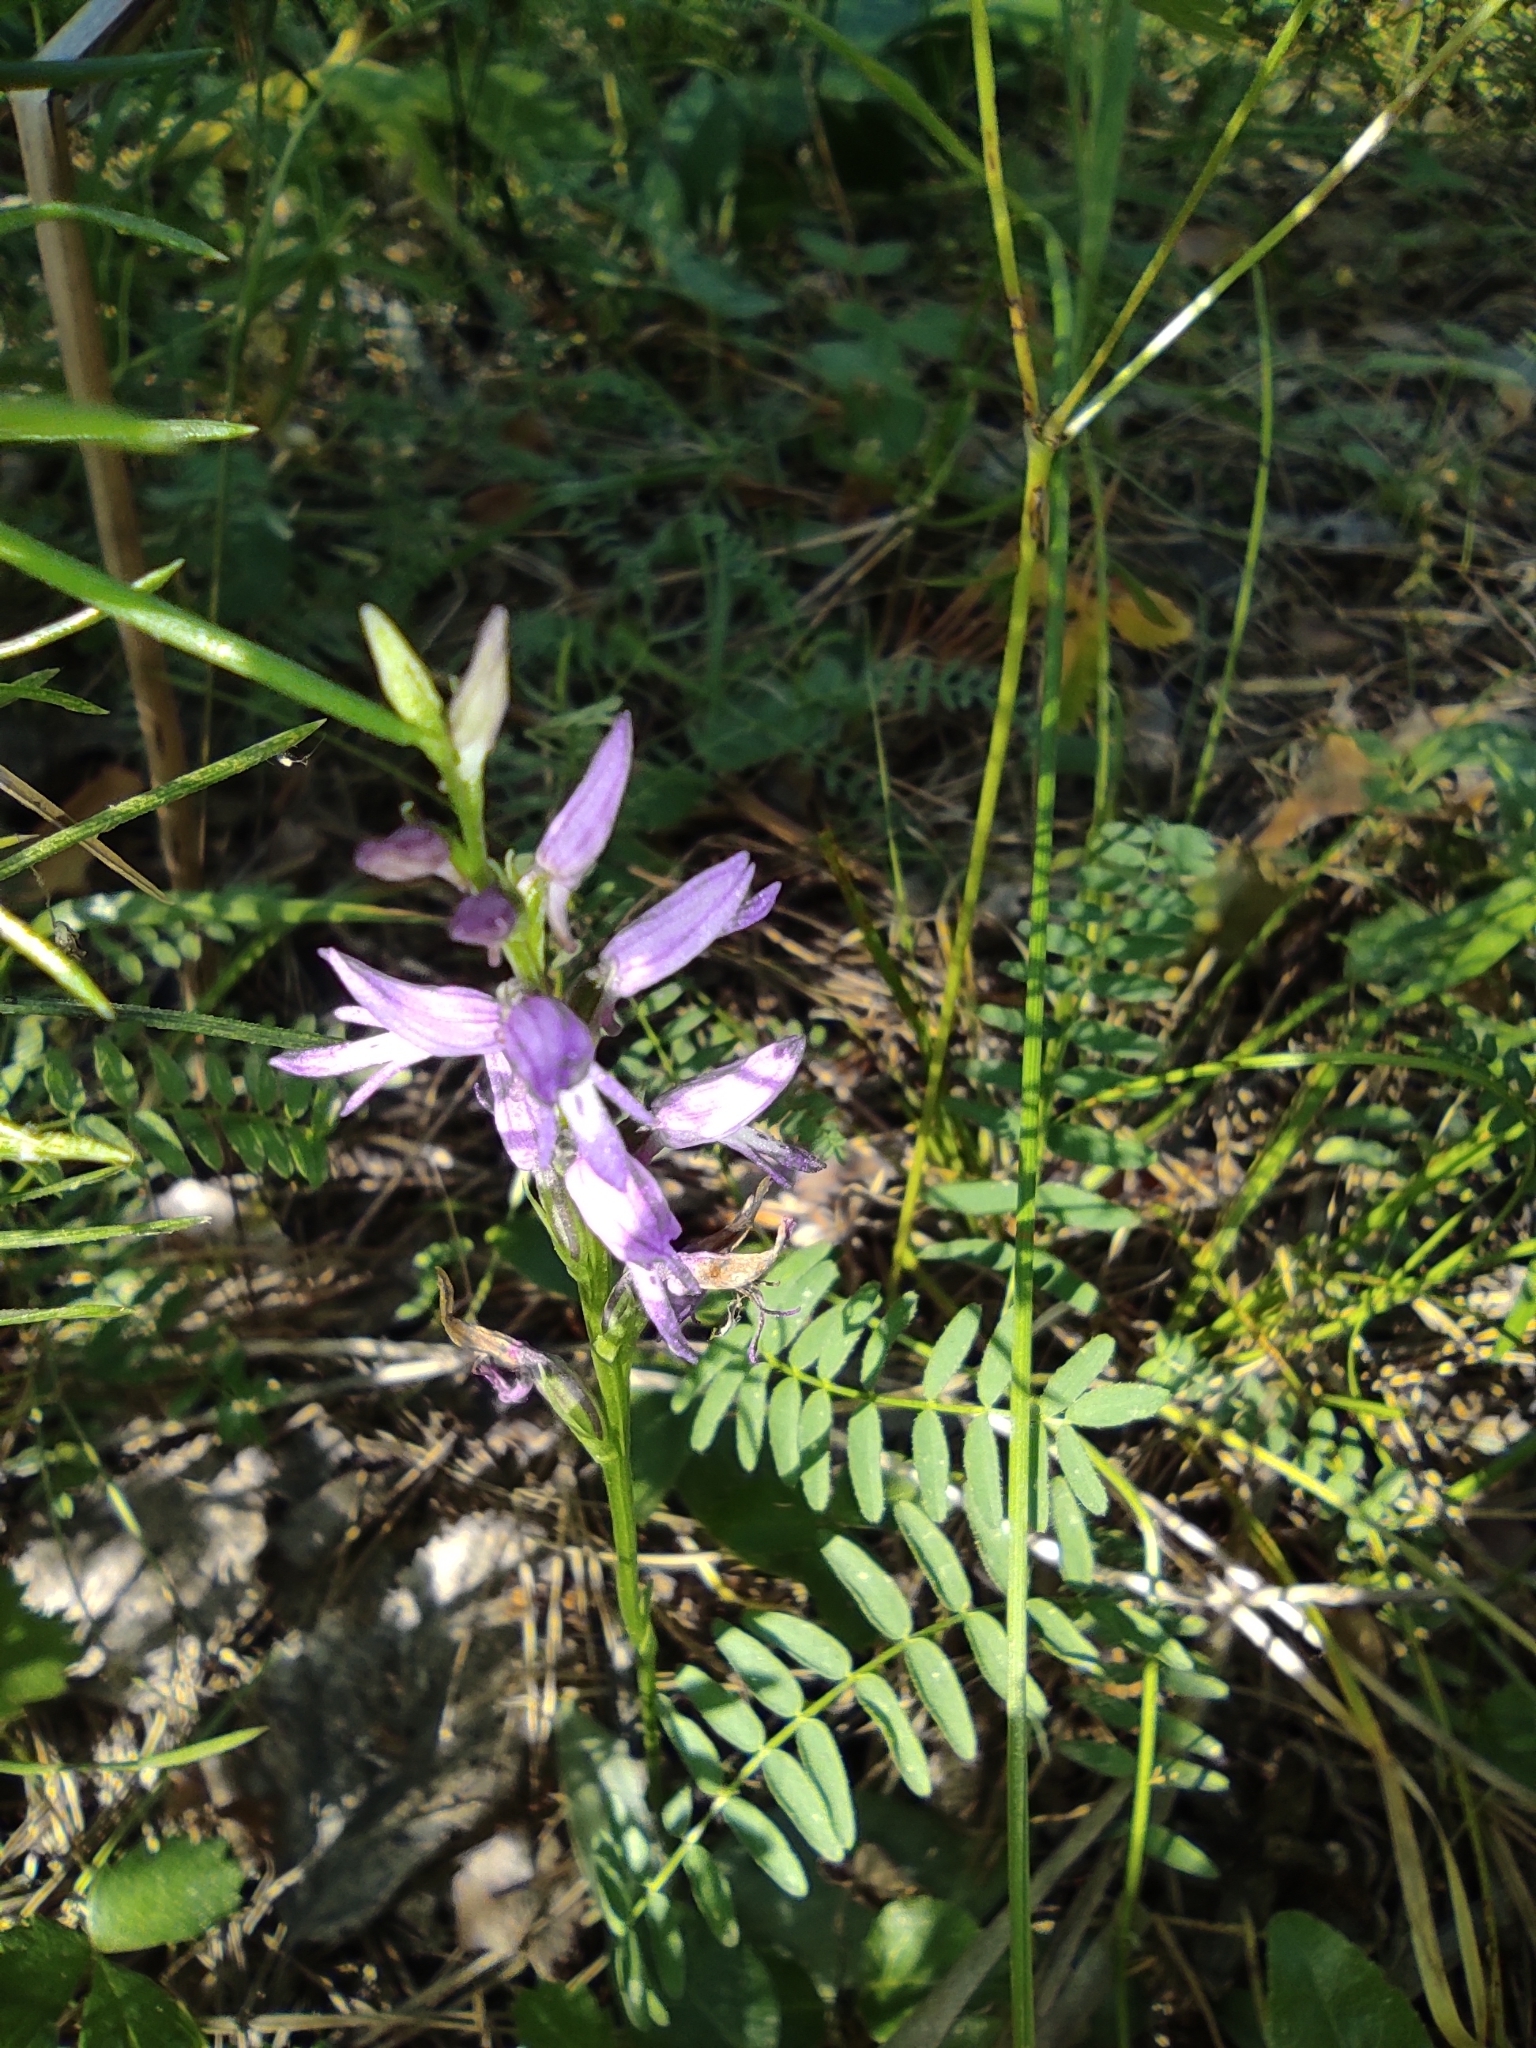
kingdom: Plantae
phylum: Tracheophyta
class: Liliopsida
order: Asparagales
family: Orchidaceae
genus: Hemipilia
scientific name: Hemipilia cucullata
